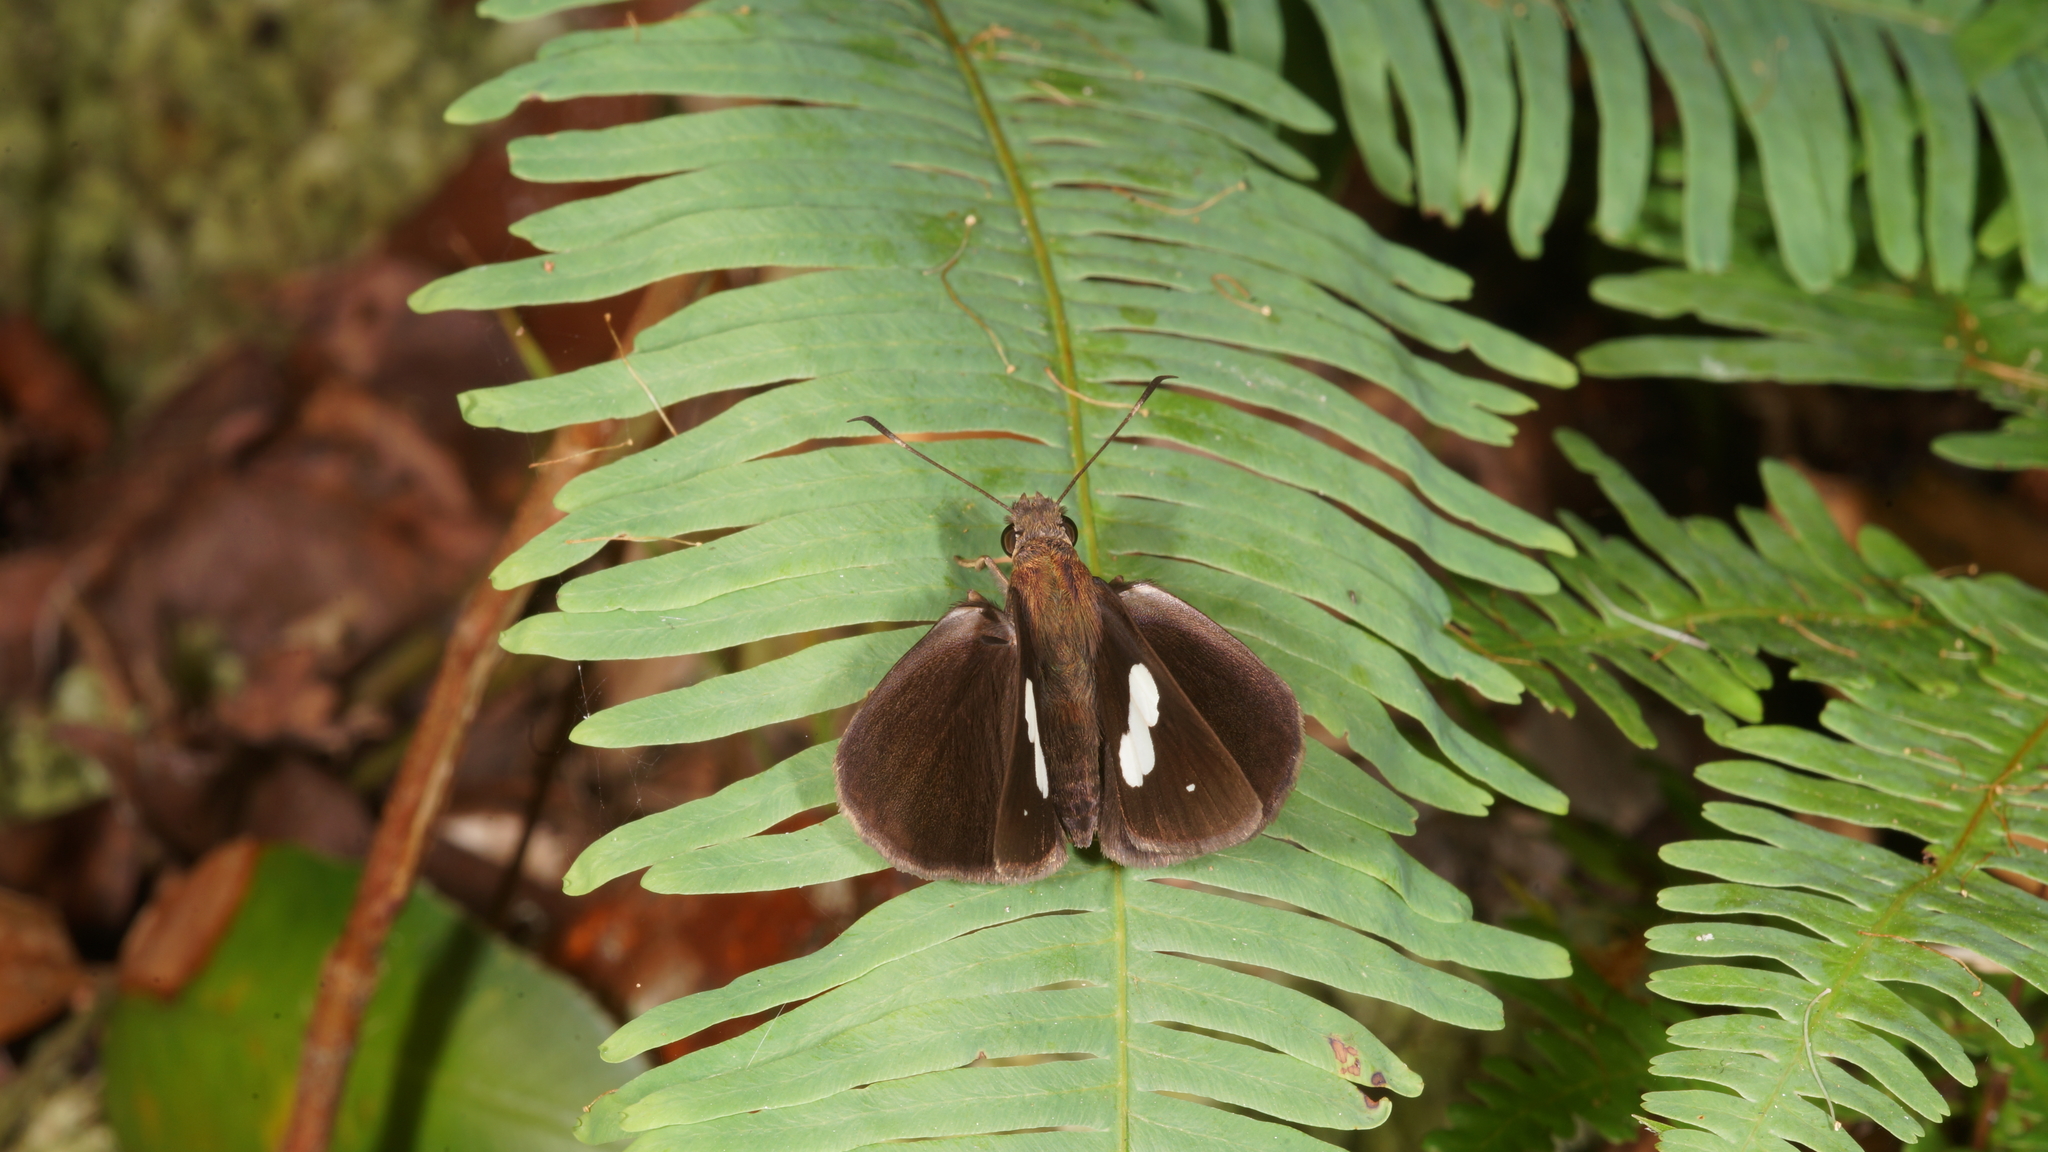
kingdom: Animalia
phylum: Arthropoda
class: Insecta
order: Lepidoptera
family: Hesperiidae
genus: Notocrypta
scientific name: Notocrypta paralysos
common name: Common banded demon
